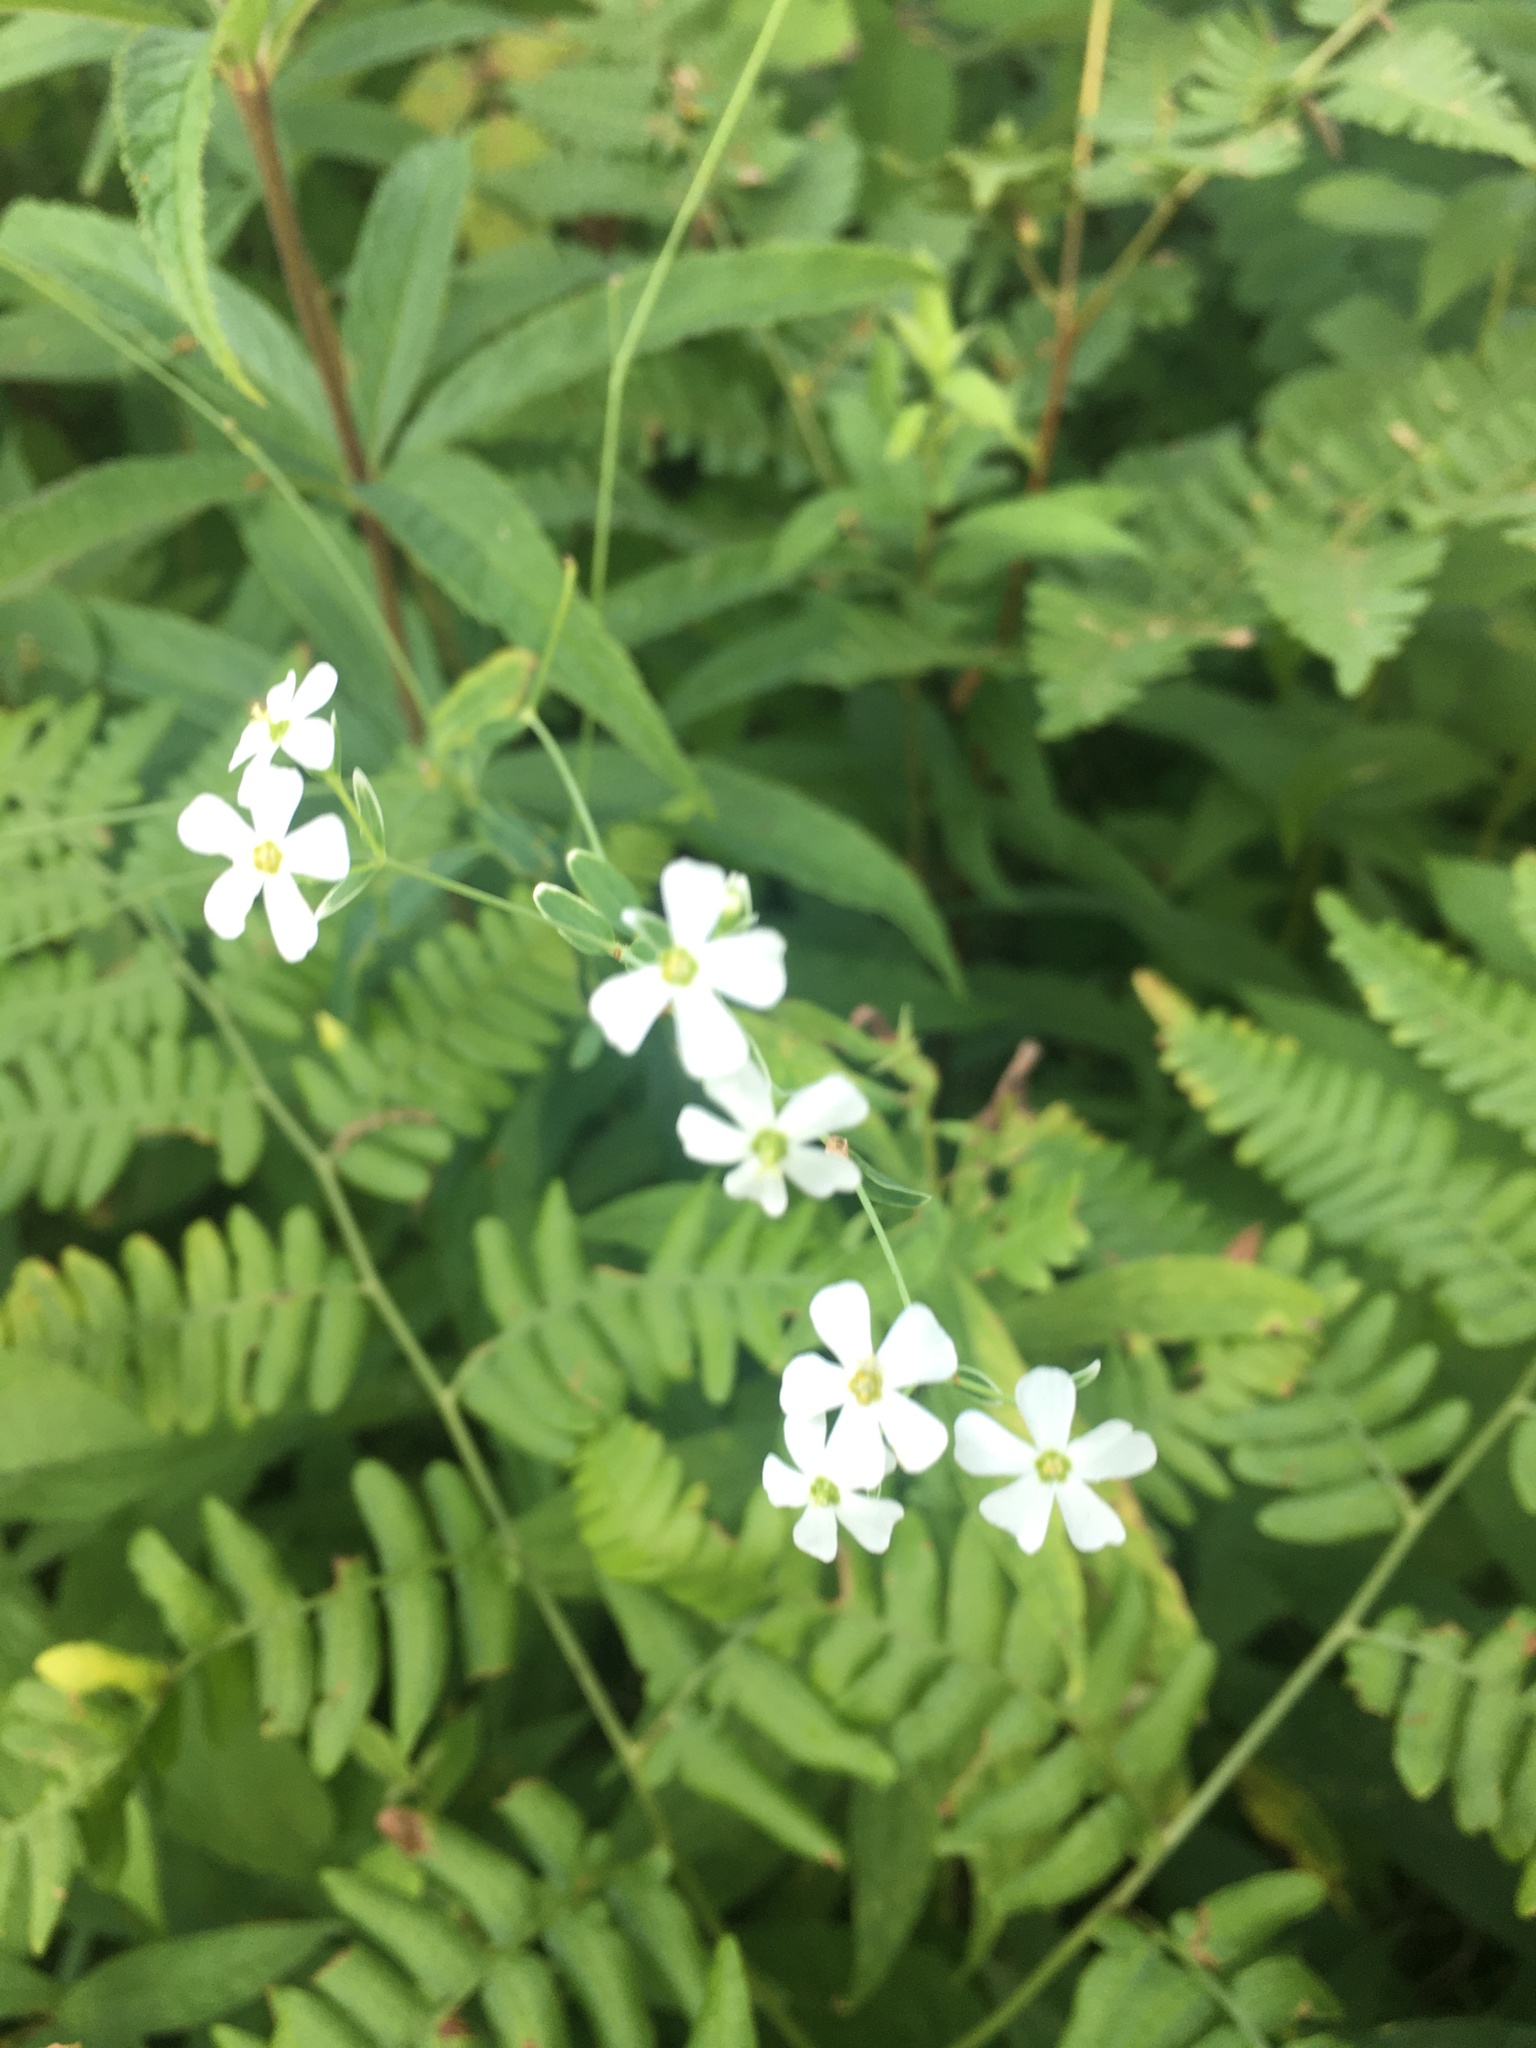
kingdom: Plantae
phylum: Tracheophyta
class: Magnoliopsida
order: Malpighiales
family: Euphorbiaceae
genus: Euphorbia
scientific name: Euphorbia corollata
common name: Flowering spurge
